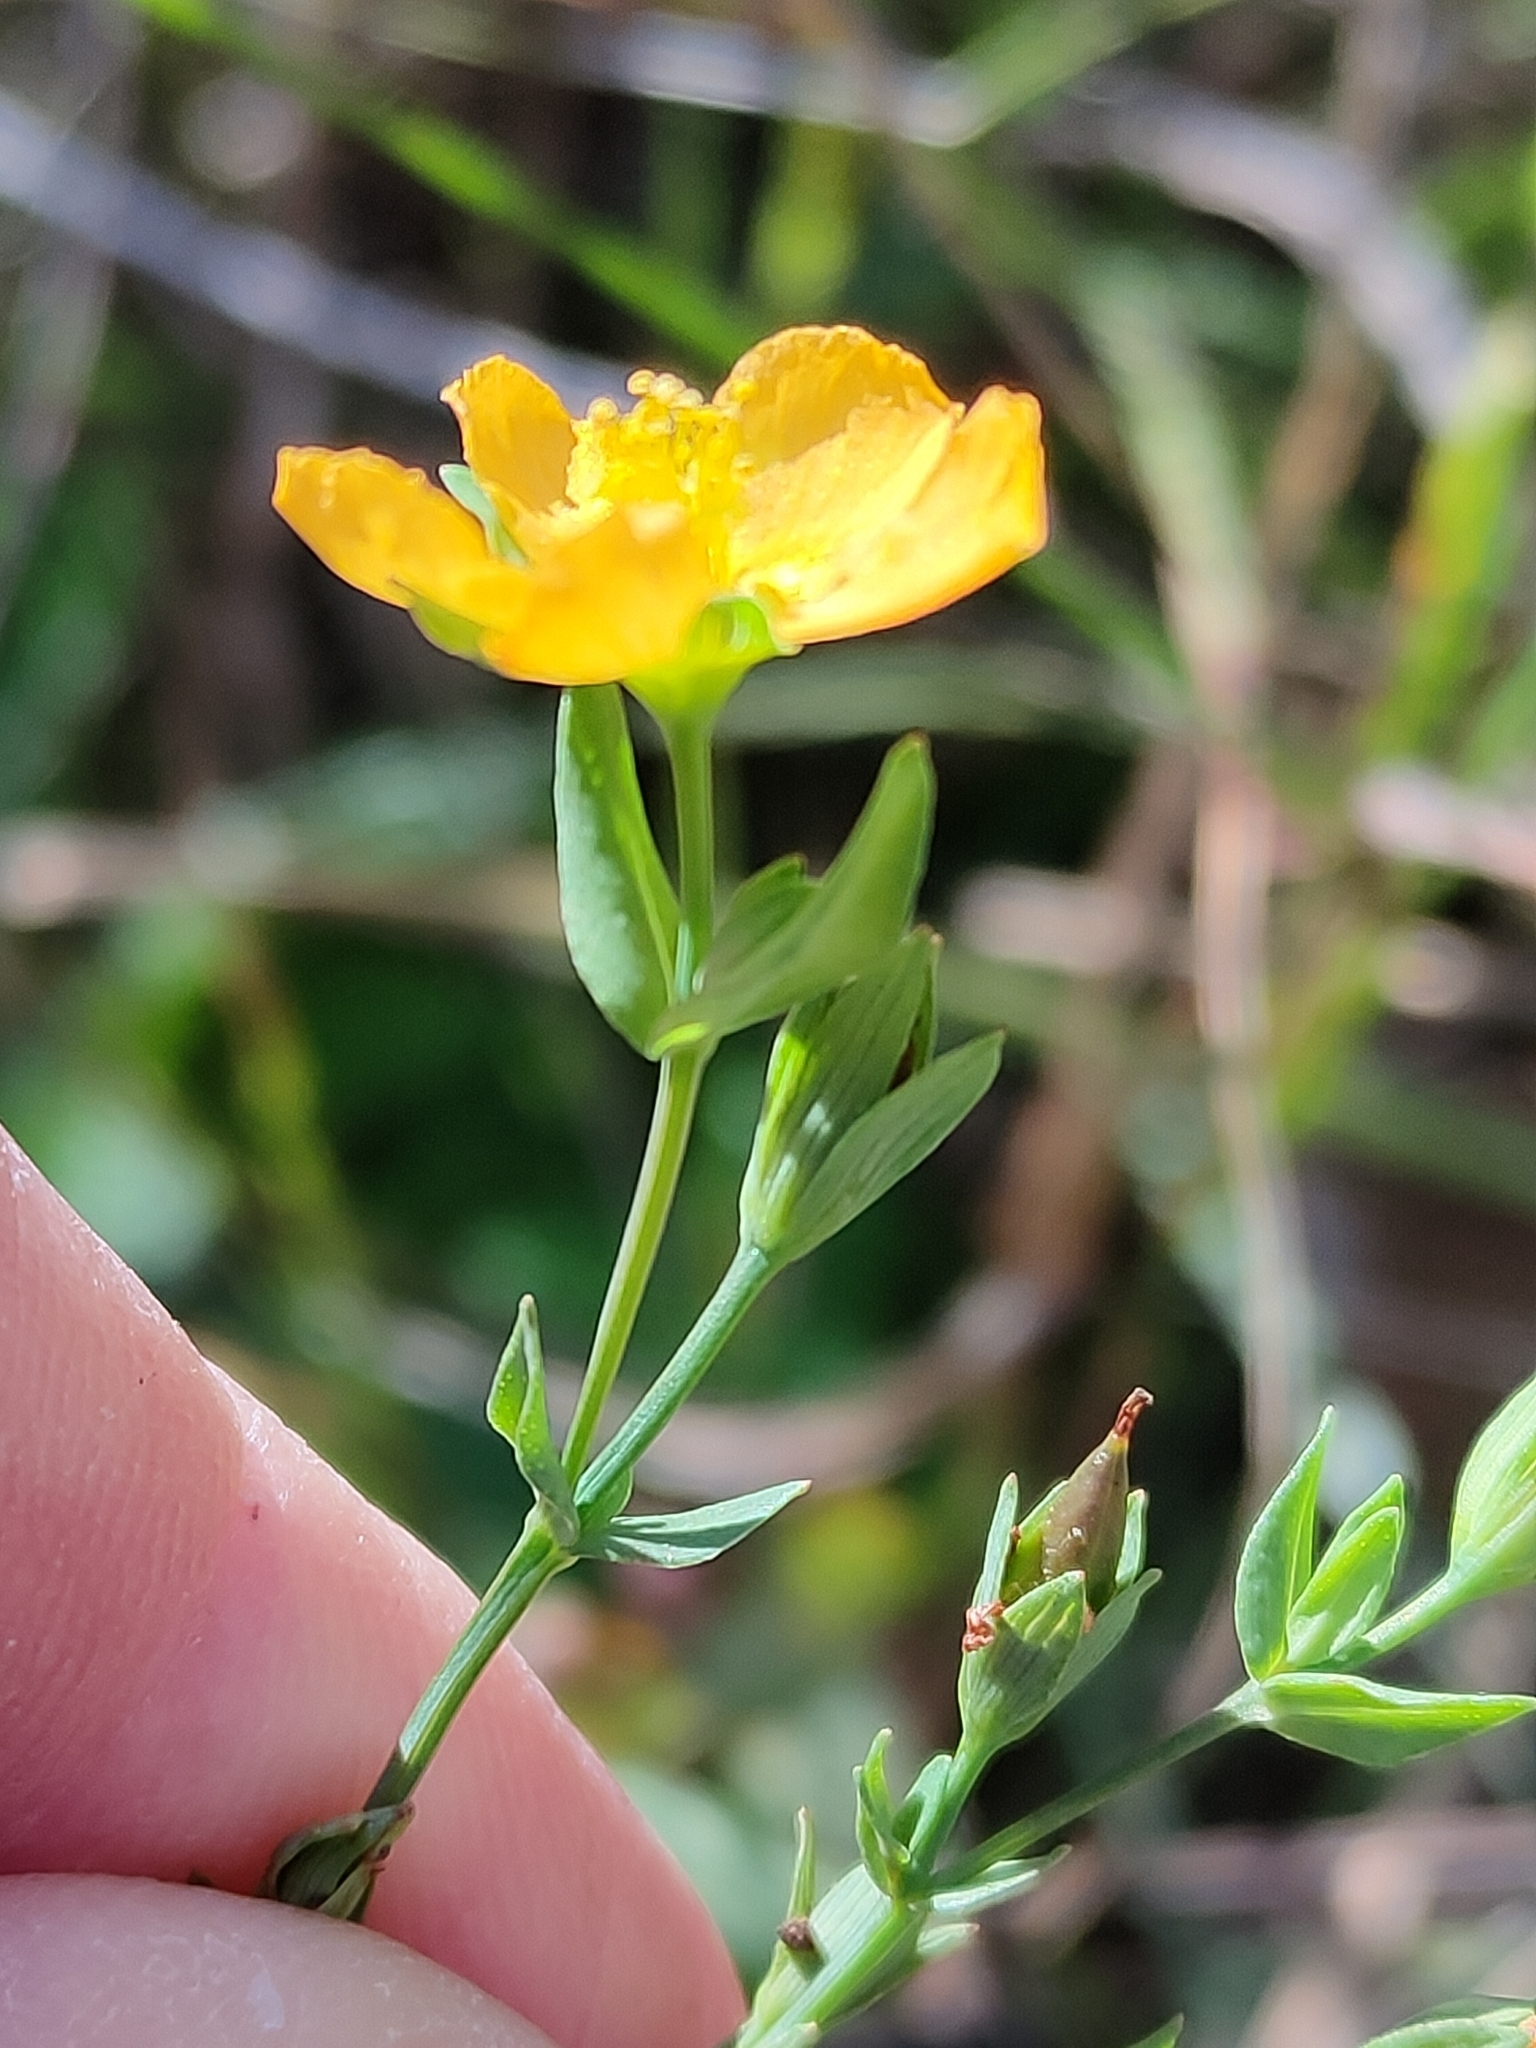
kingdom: Plantae
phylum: Tracheophyta
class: Magnoliopsida
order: Malpighiales
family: Hypericaceae
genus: Hypericum
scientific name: Hypericum gramineum
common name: Grassy st. johnswort
